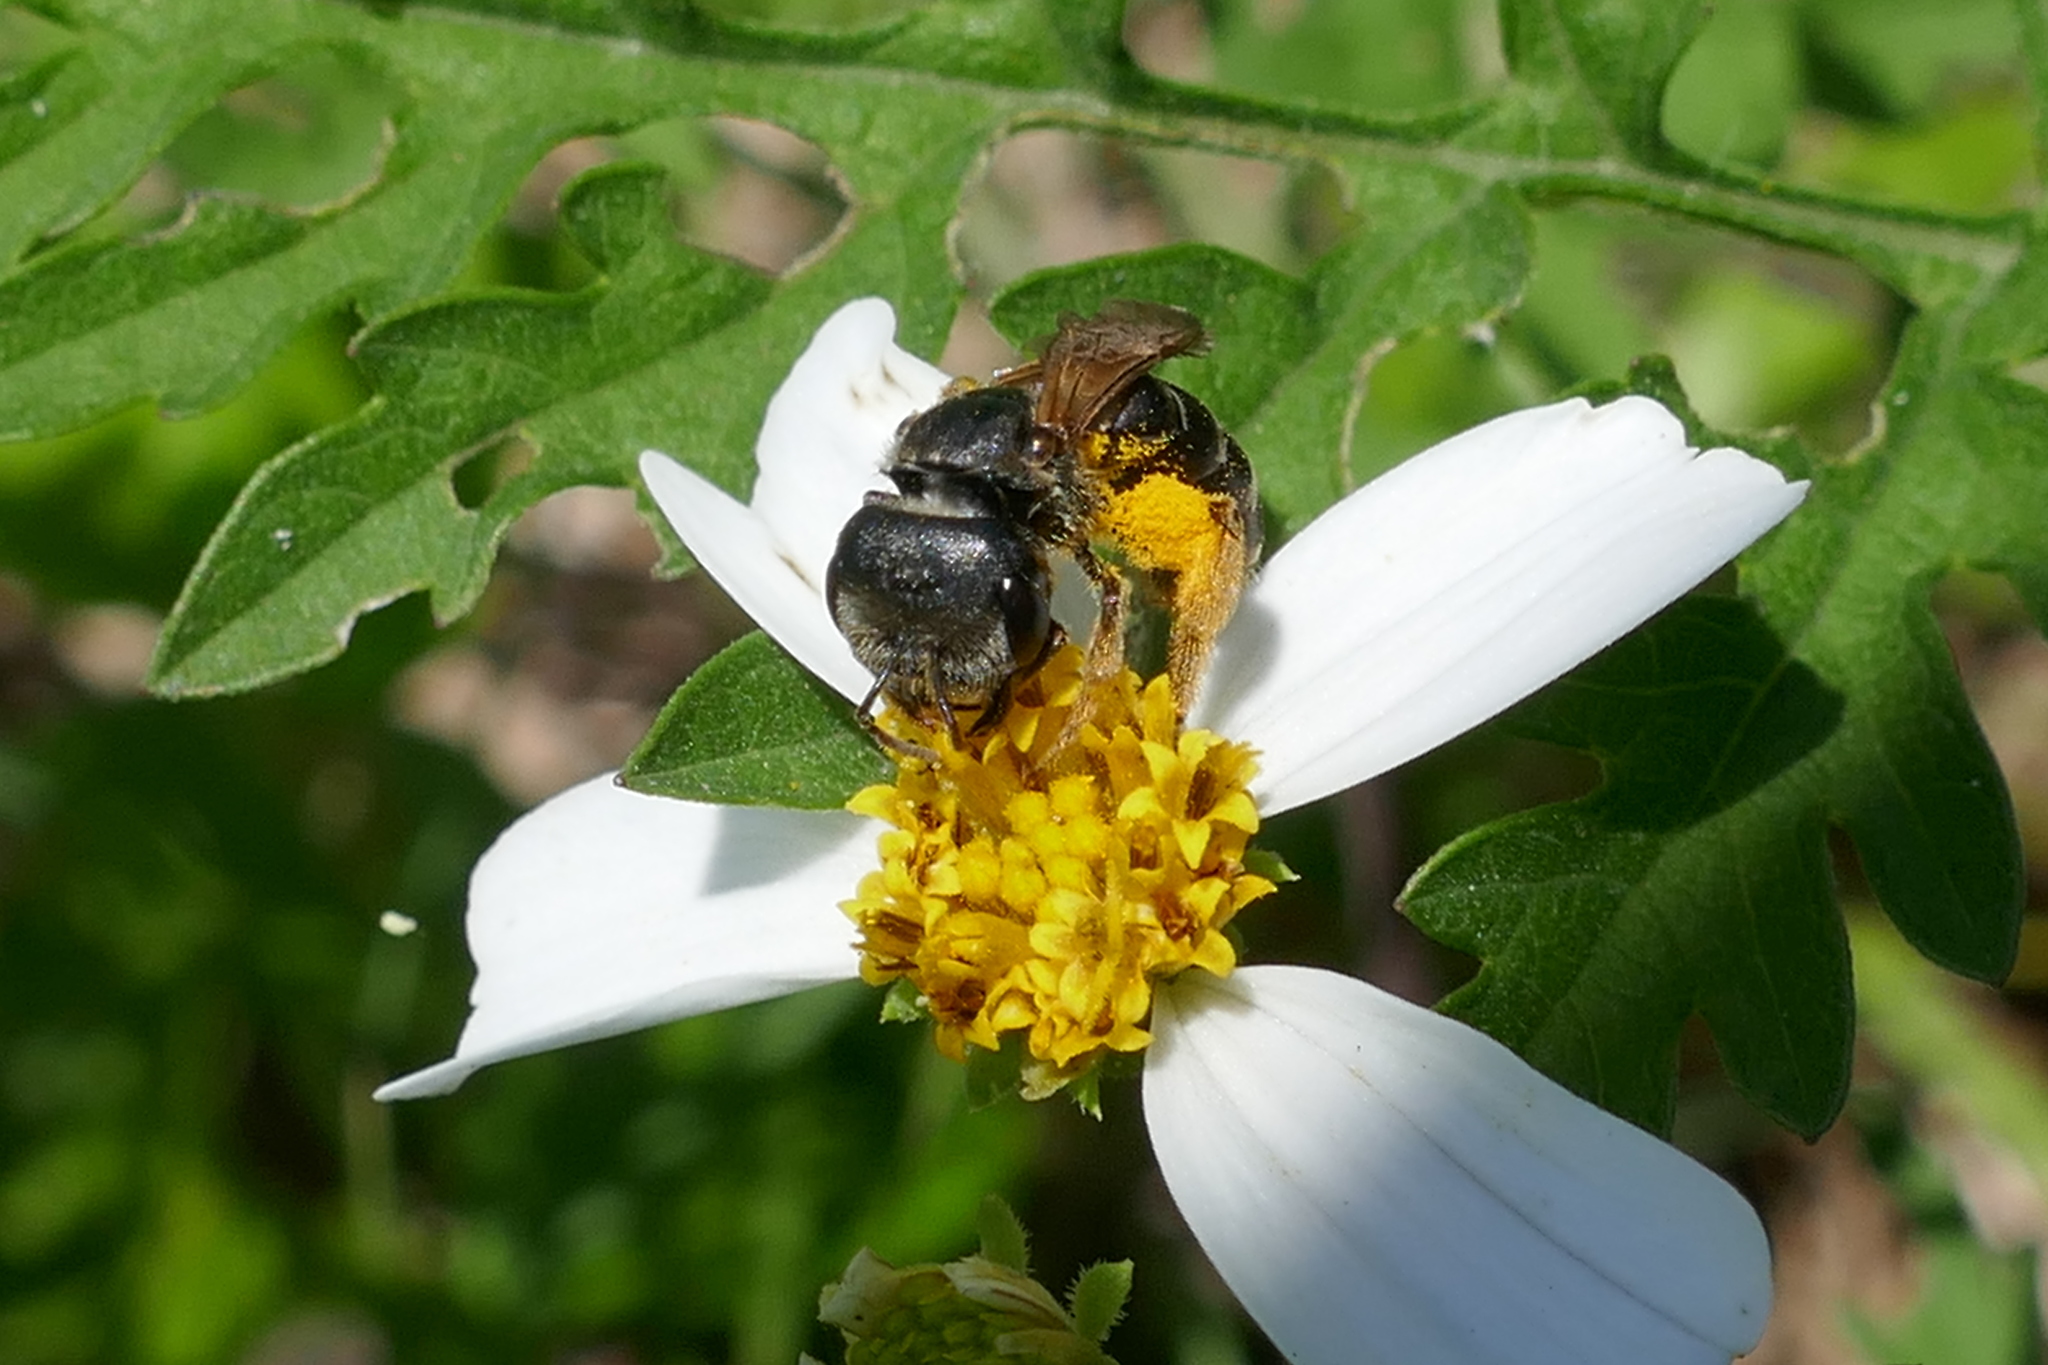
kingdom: Animalia
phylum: Arthropoda
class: Insecta
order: Hymenoptera
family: Halictidae
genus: Halictus
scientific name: Halictus poeyi
